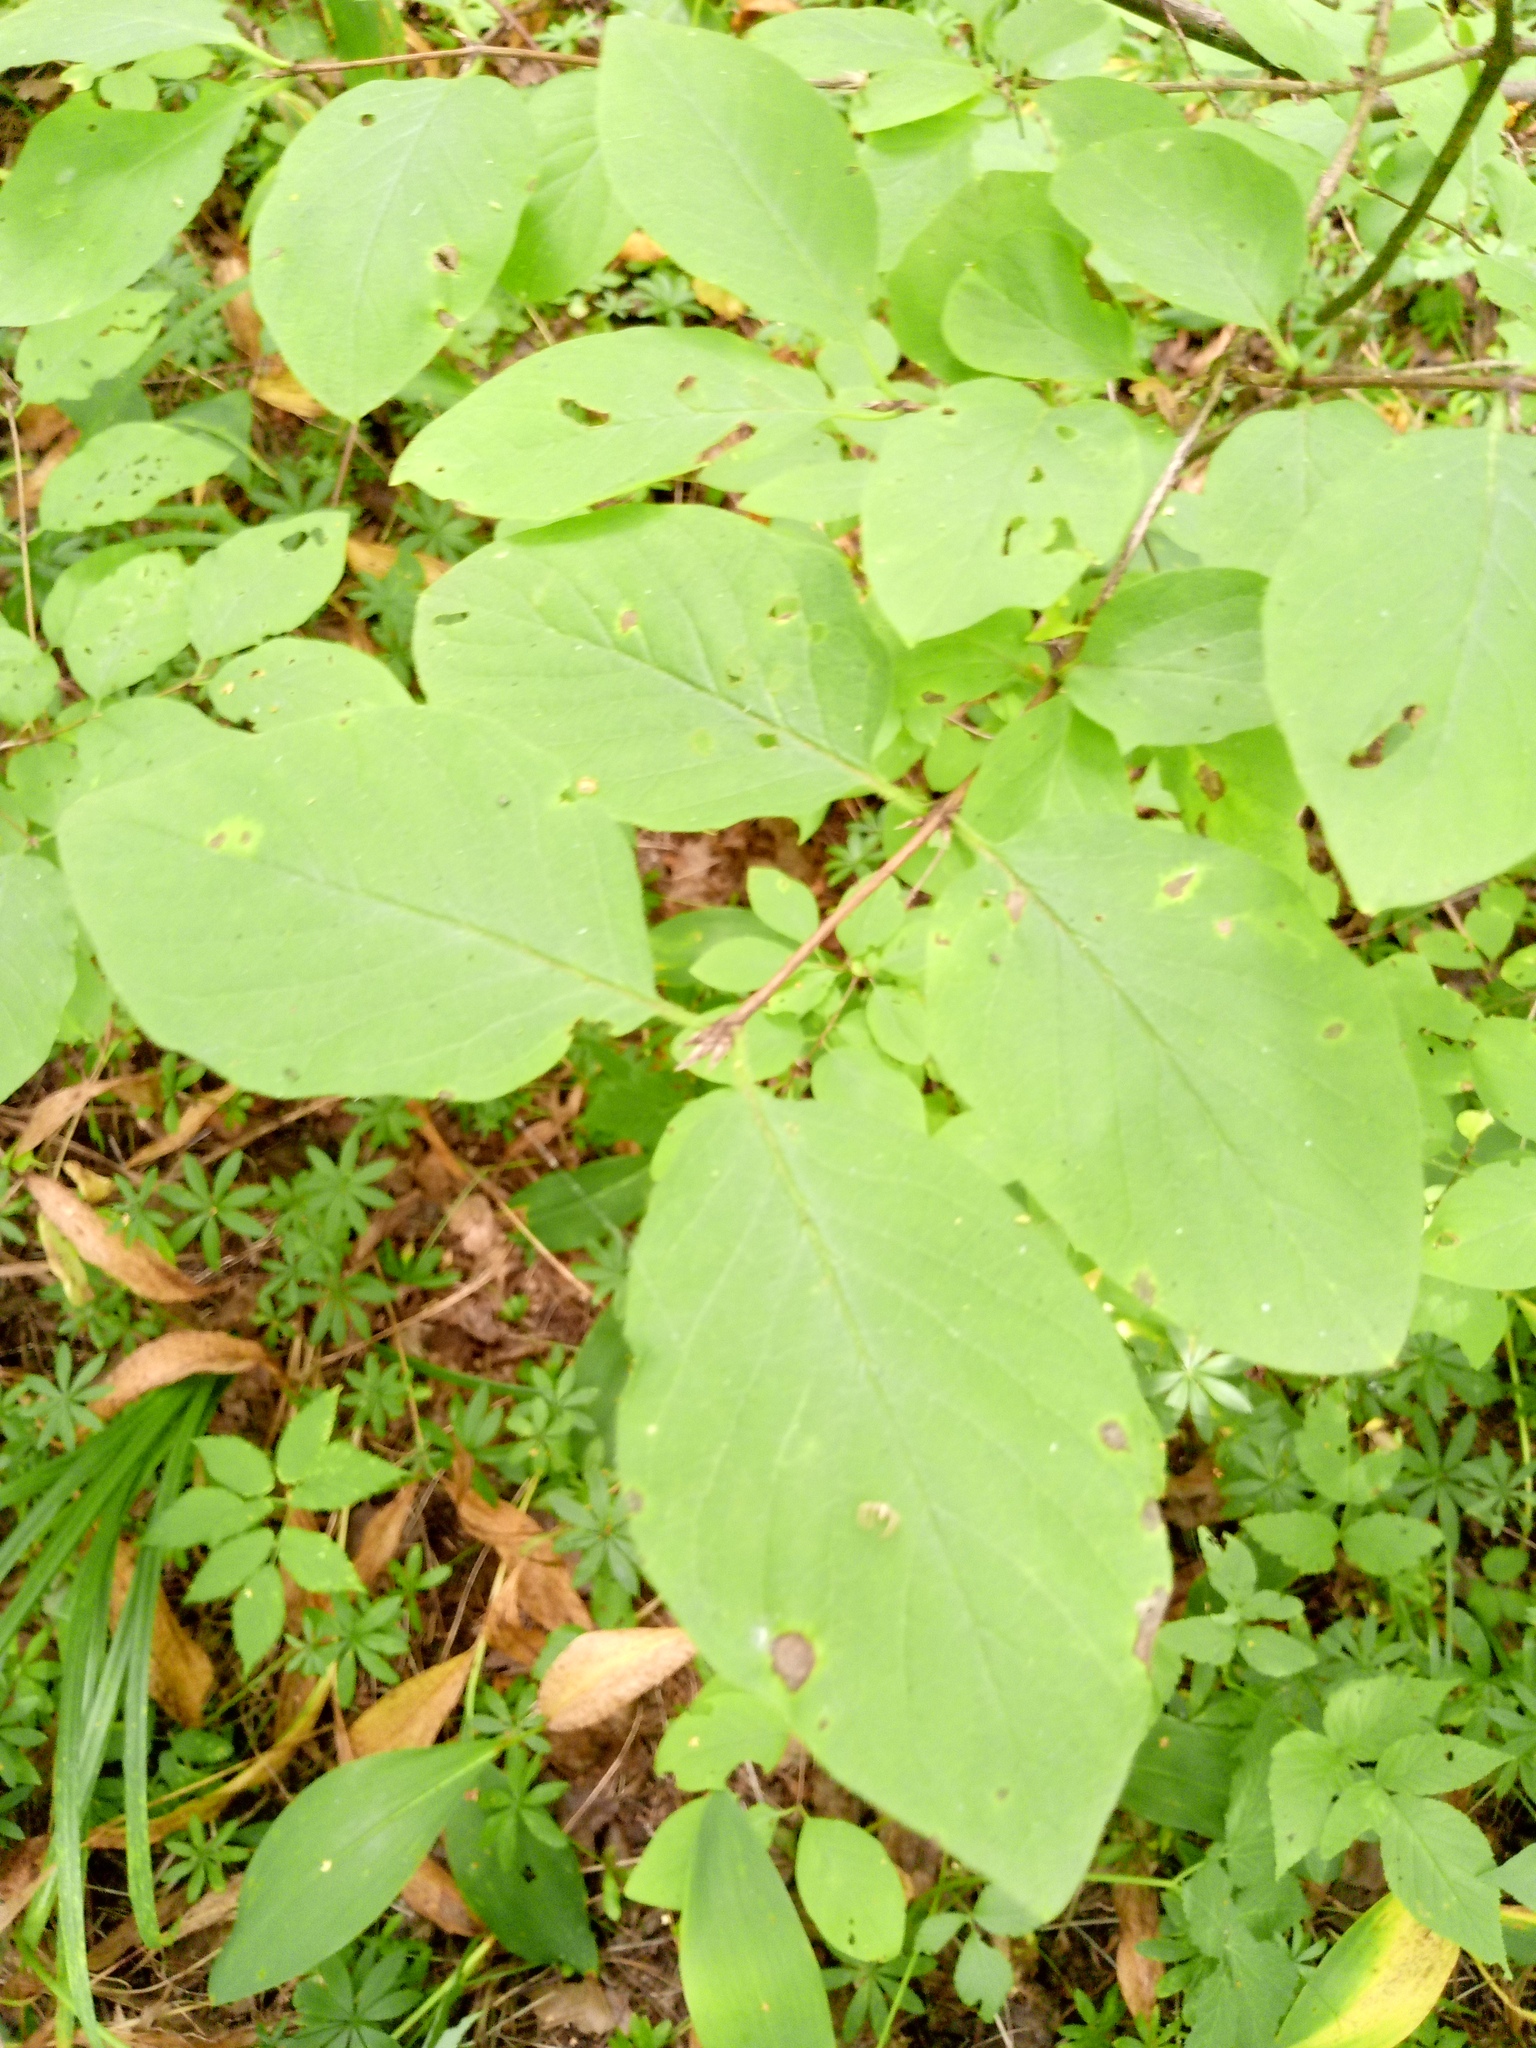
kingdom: Plantae
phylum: Tracheophyta
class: Magnoliopsida
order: Dipsacales
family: Caprifoliaceae
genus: Lonicera
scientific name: Lonicera xylosteum
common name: Fly honeysuckle
